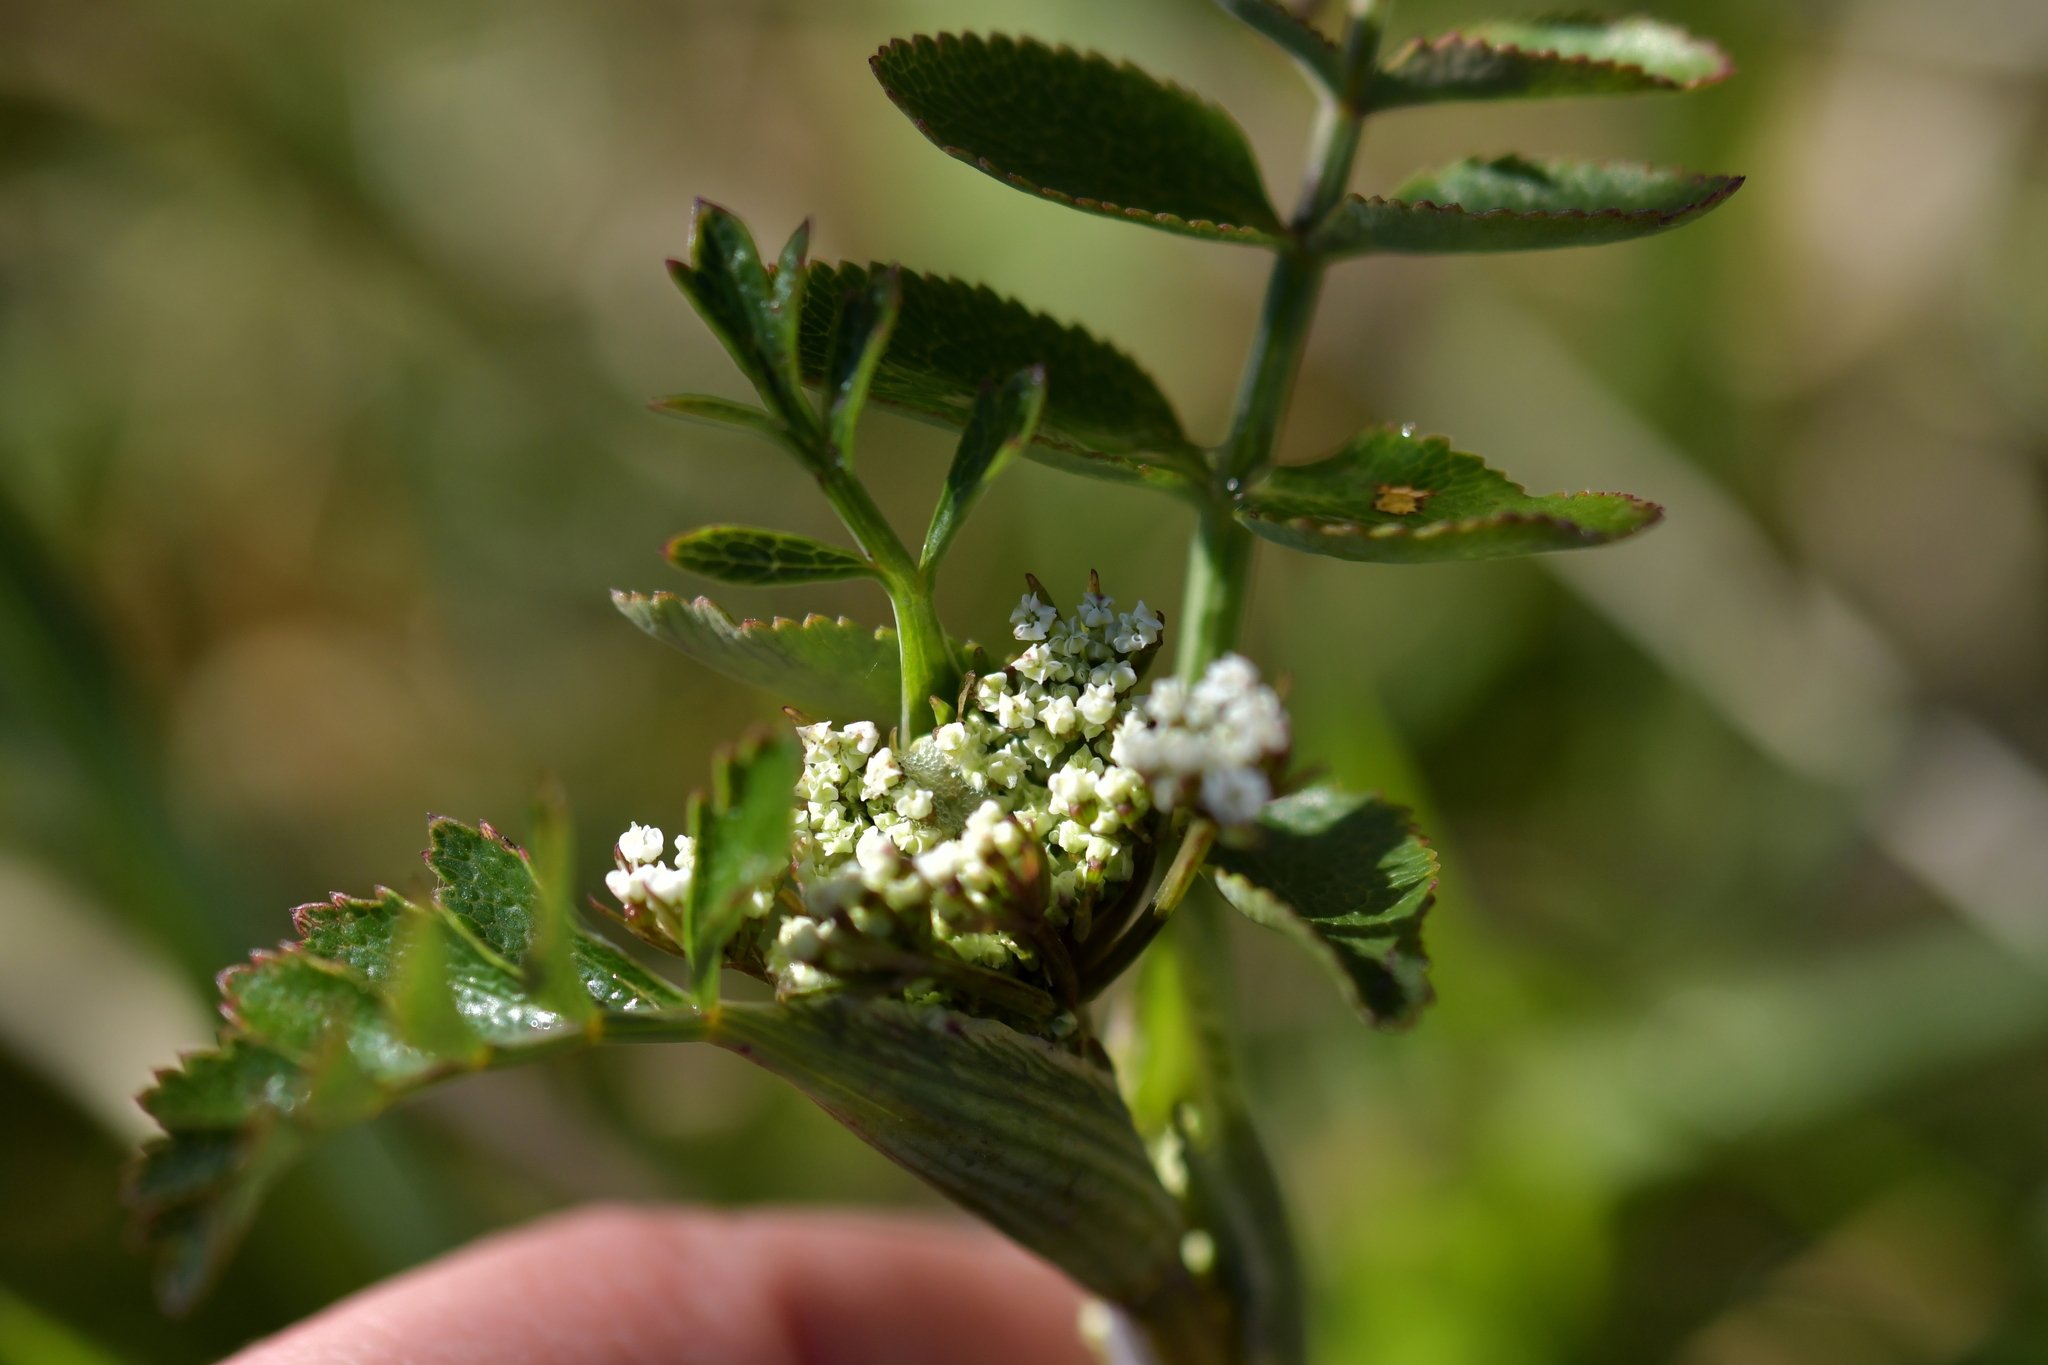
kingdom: Plantae
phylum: Tracheophyta
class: Magnoliopsida
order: Apiales
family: Apiaceae
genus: Gingidia
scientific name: Gingidia montana
